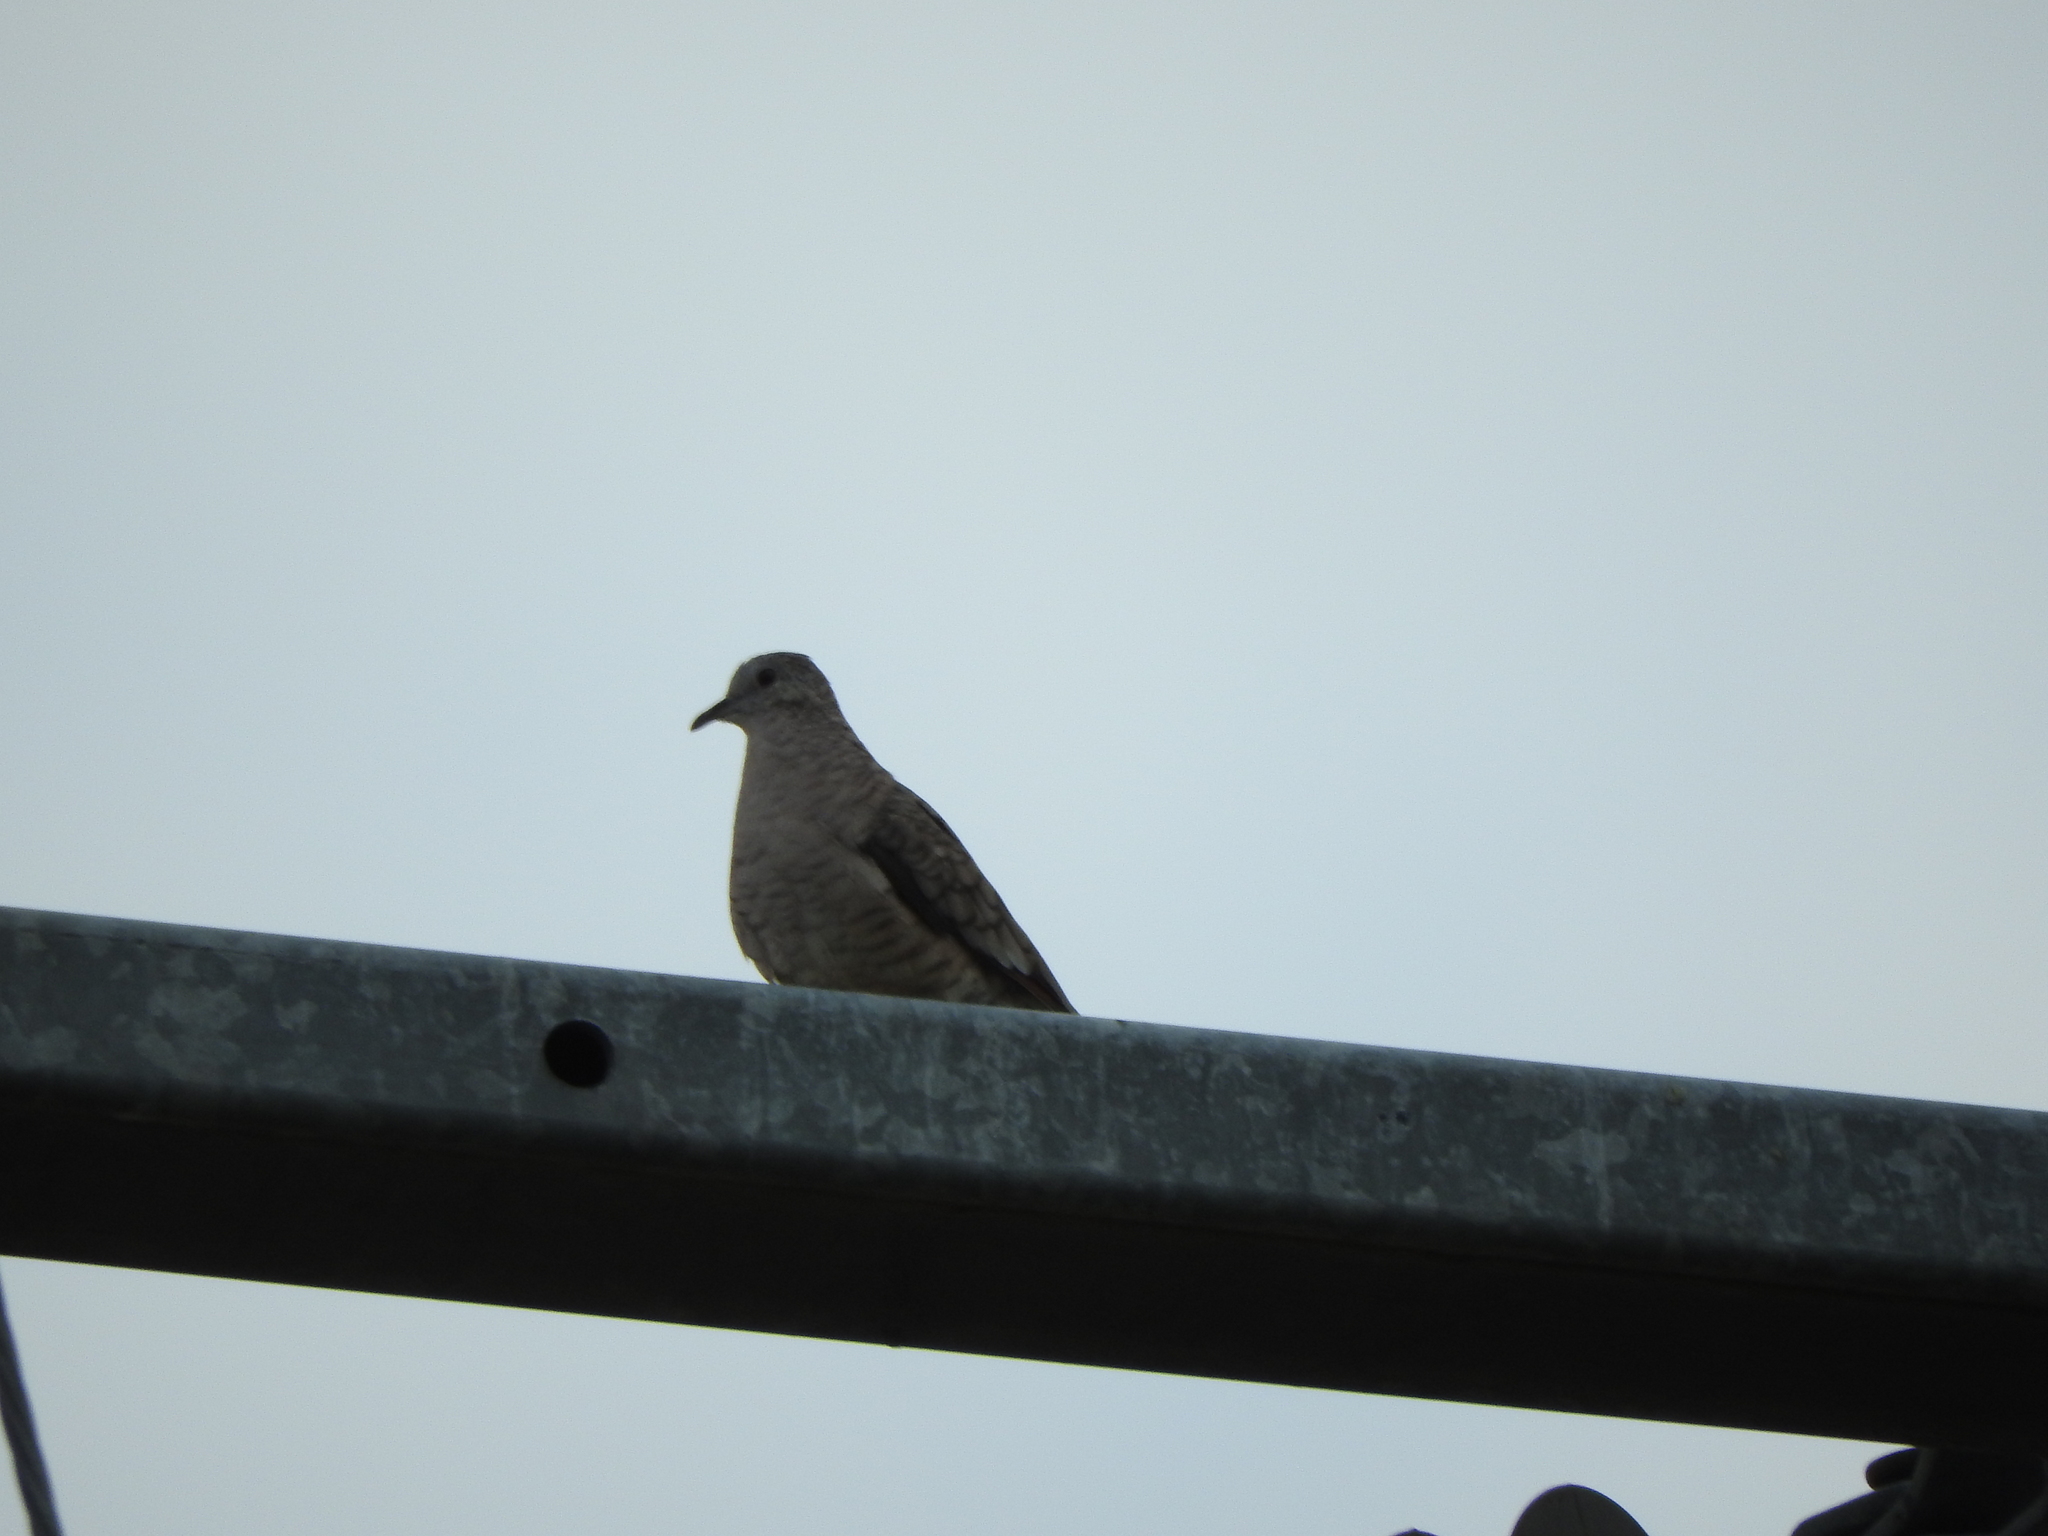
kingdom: Animalia
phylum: Chordata
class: Aves
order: Columbiformes
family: Columbidae
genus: Columbina
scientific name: Columbina inca
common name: Inca dove
